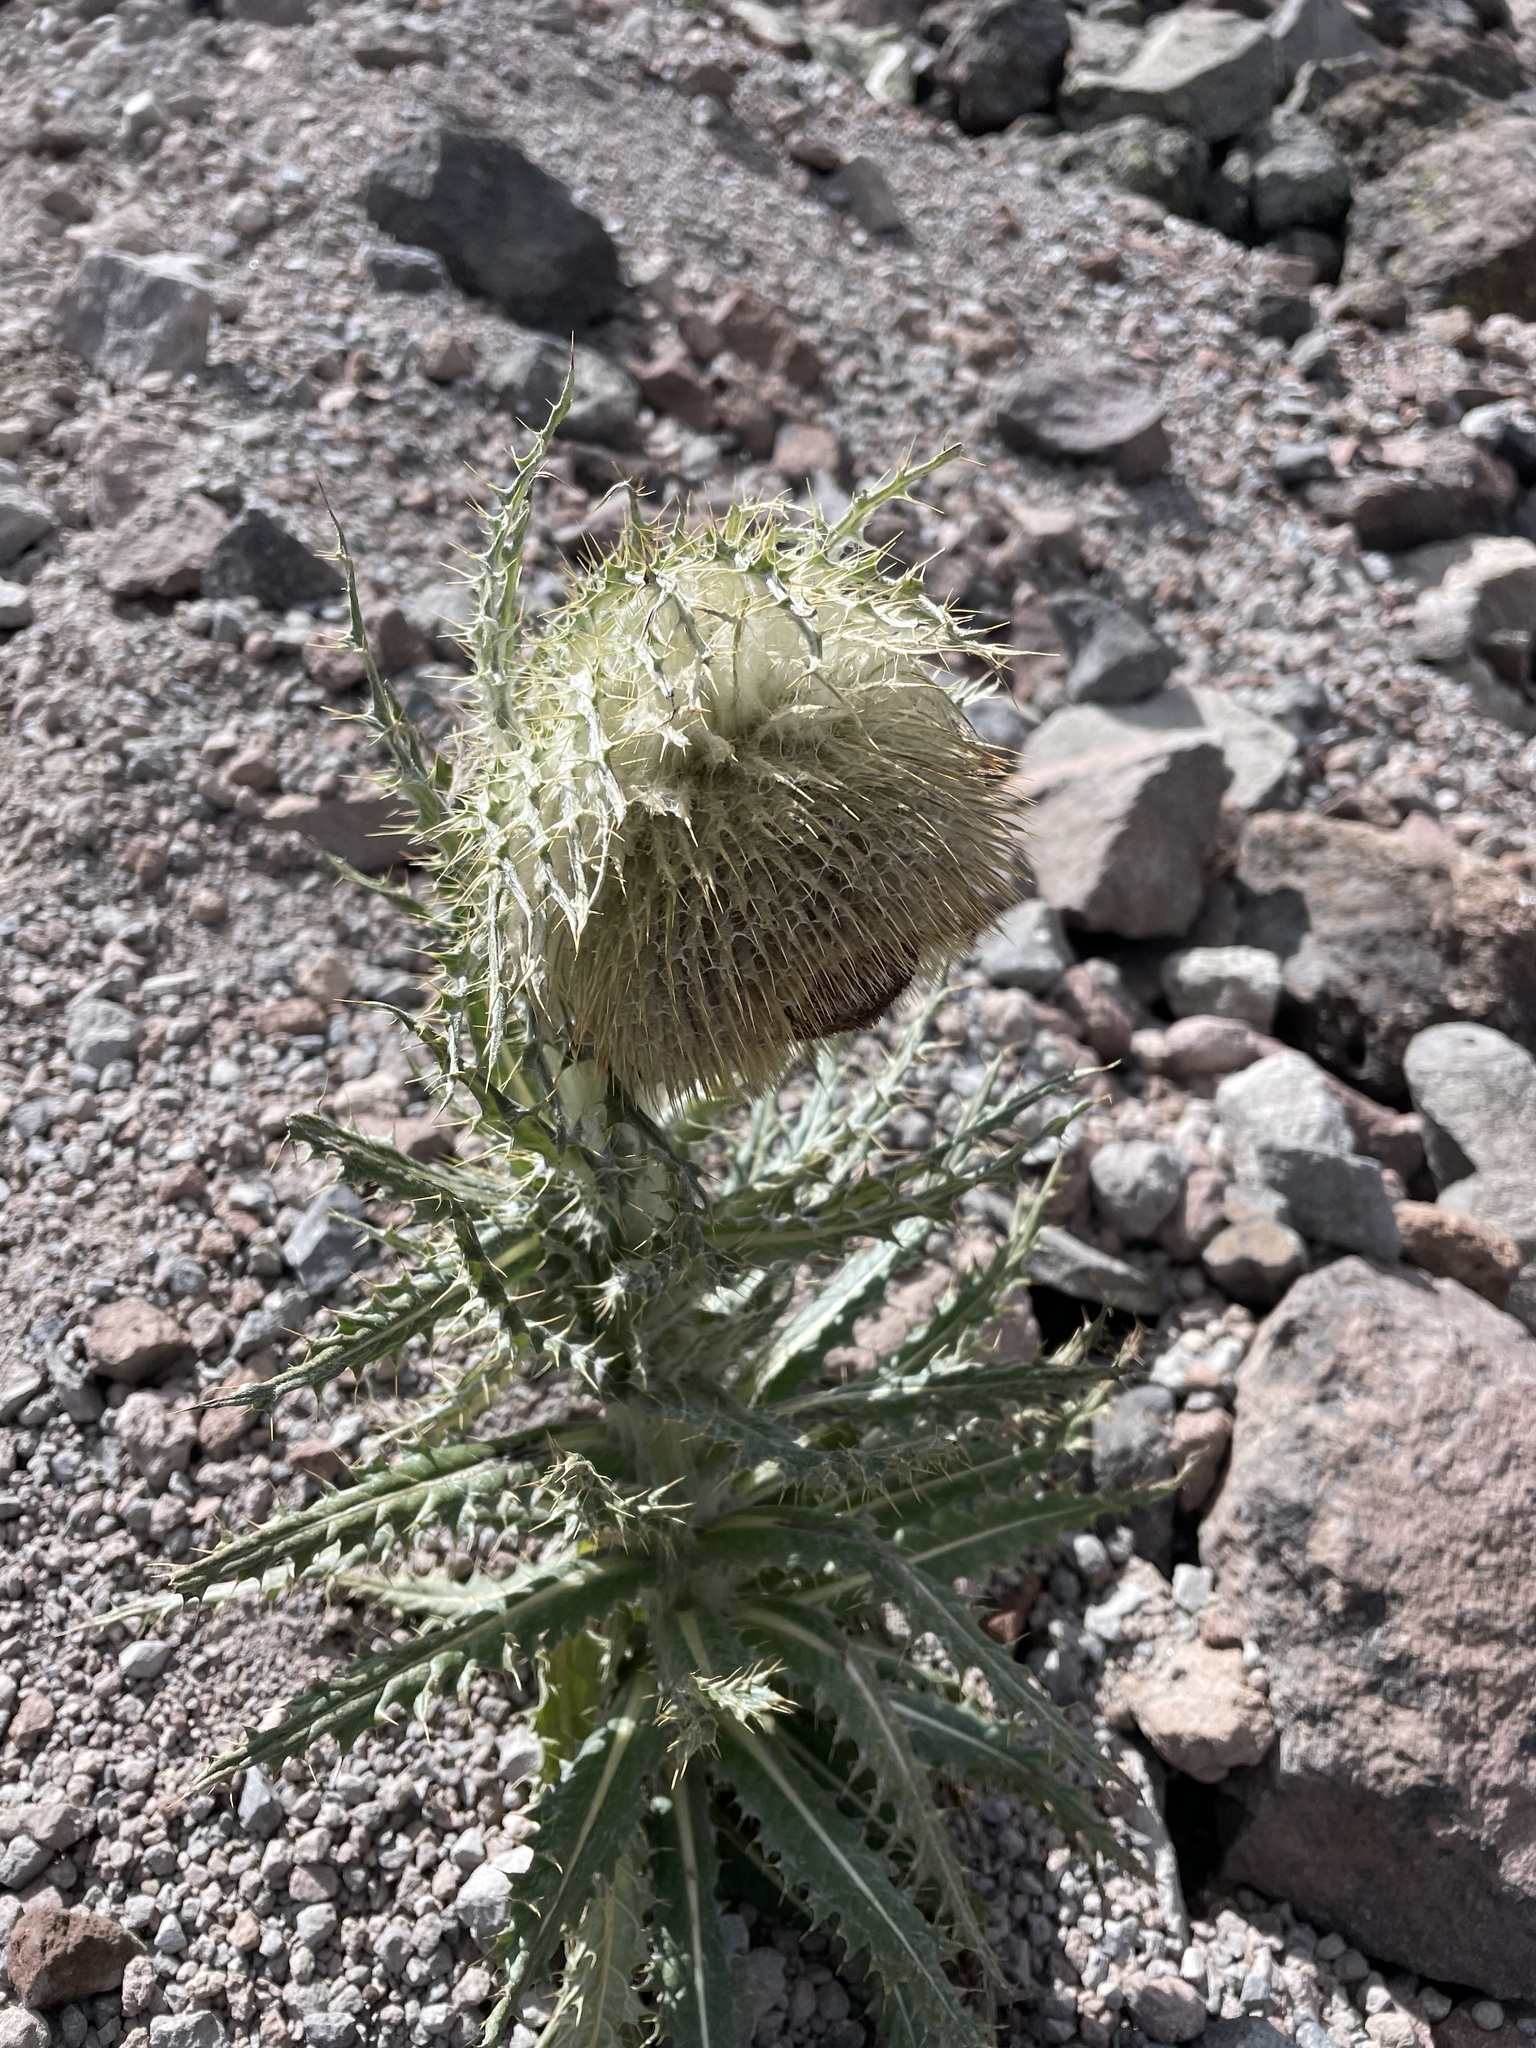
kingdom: Plantae
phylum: Tracheophyta
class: Magnoliopsida
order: Asterales
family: Asteraceae
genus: Cirsium
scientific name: Cirsium nivale
